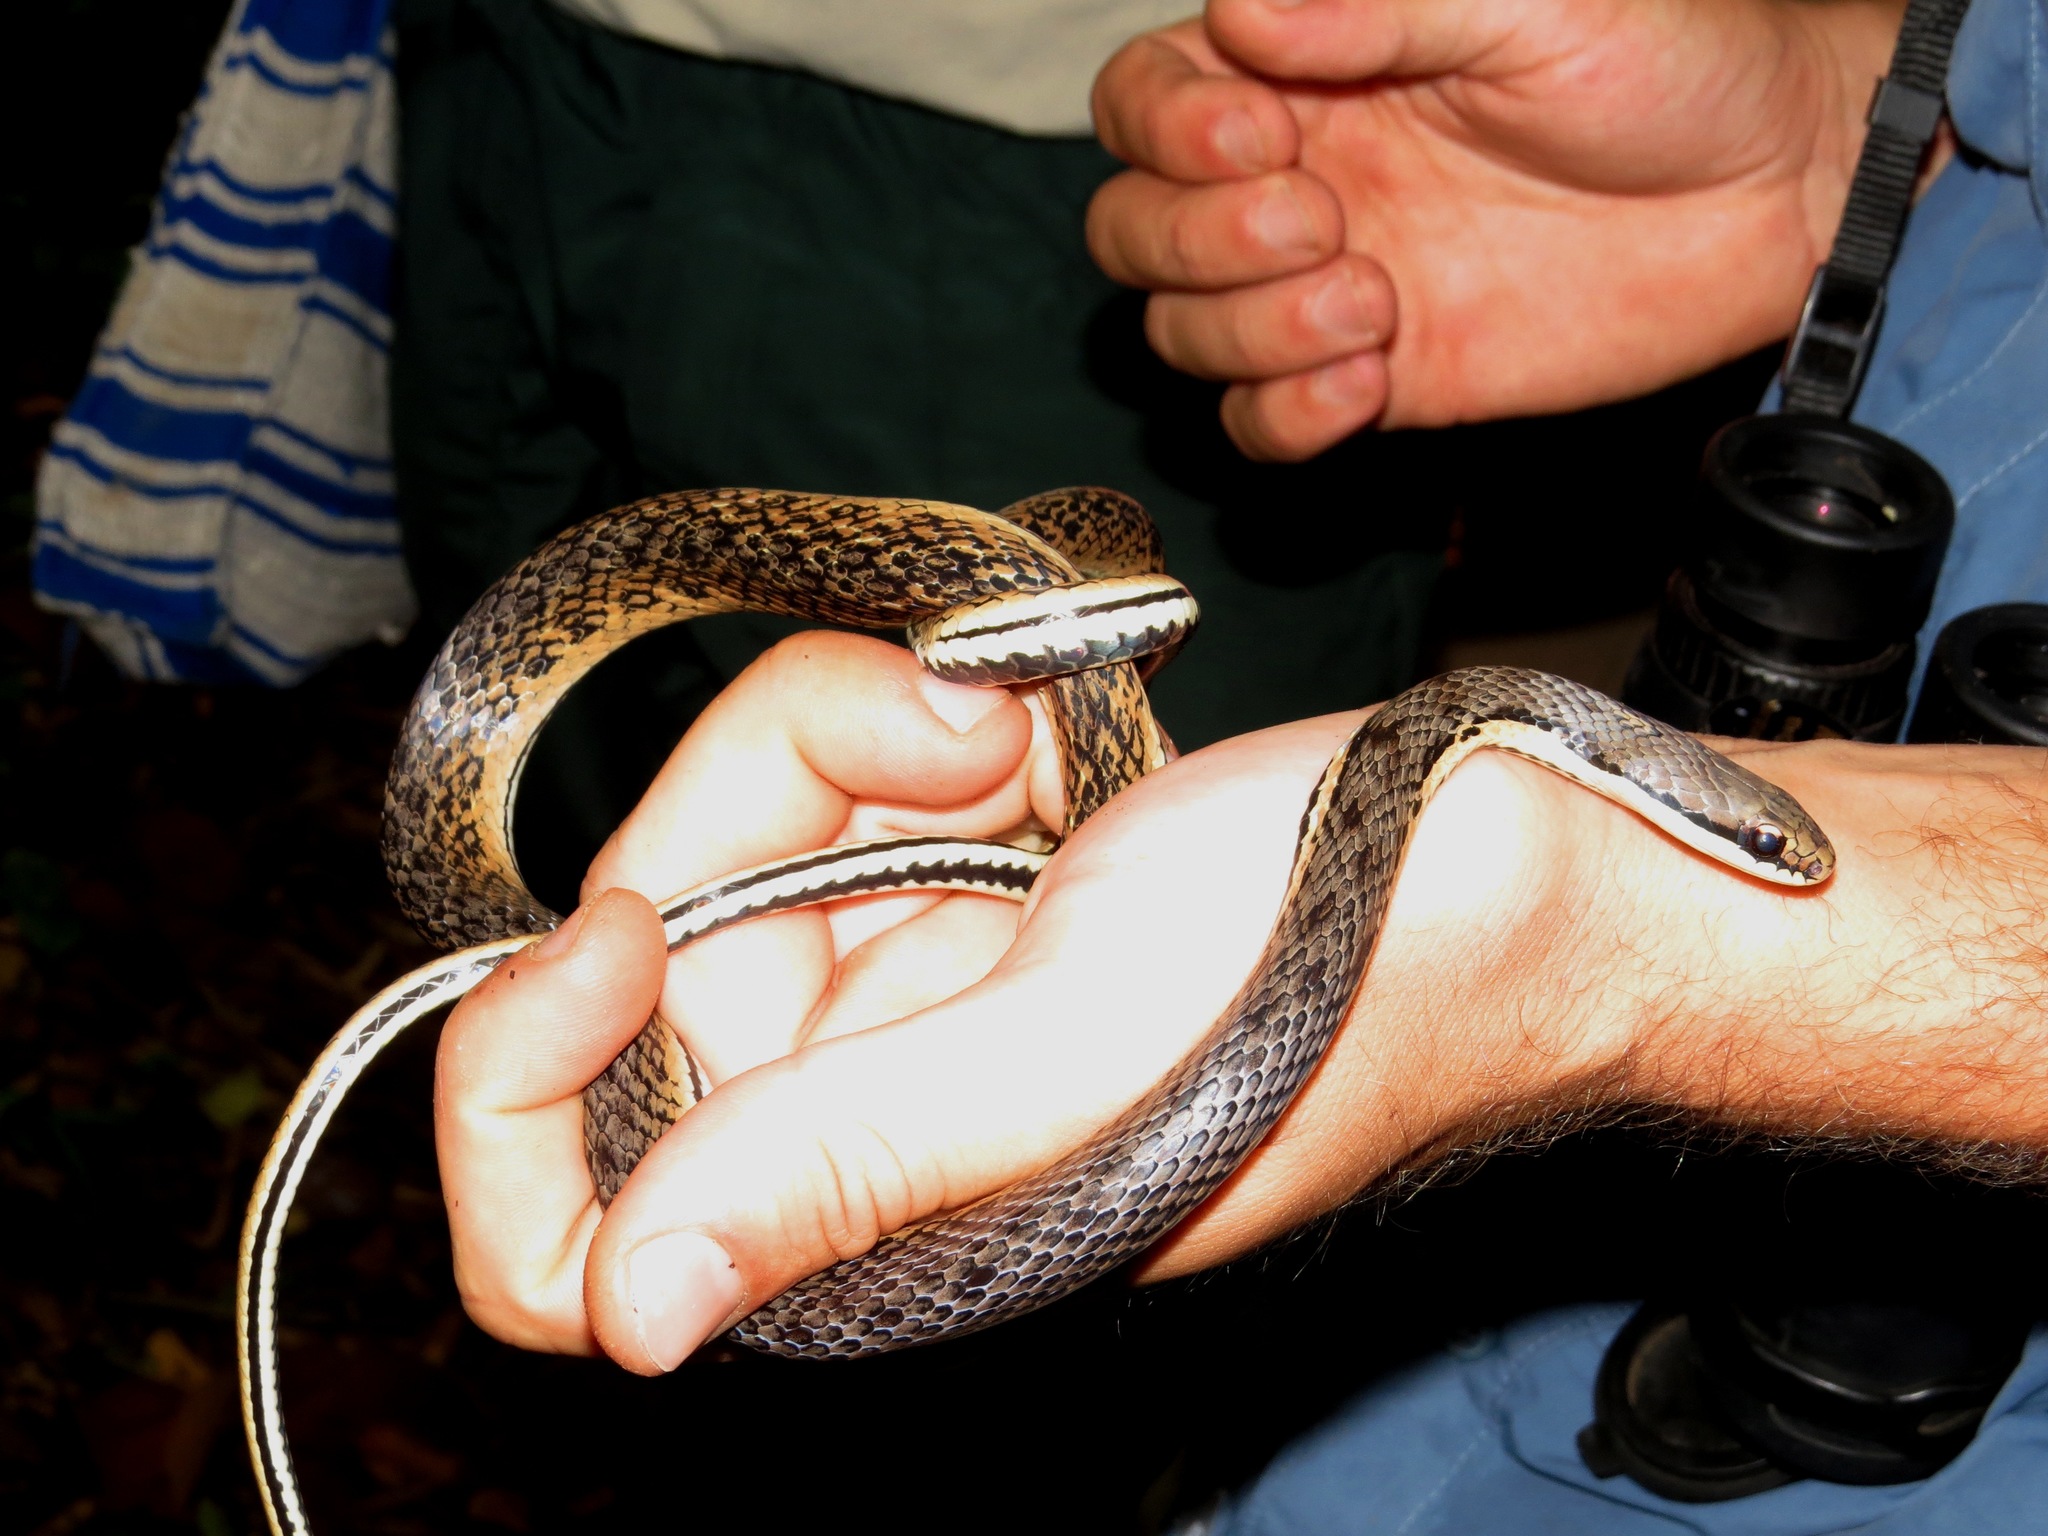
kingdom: Animalia
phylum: Chordata
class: Squamata
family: Pseudoxyrhophiidae
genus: Liopholidophis
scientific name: Liopholidophis dolicocercus
